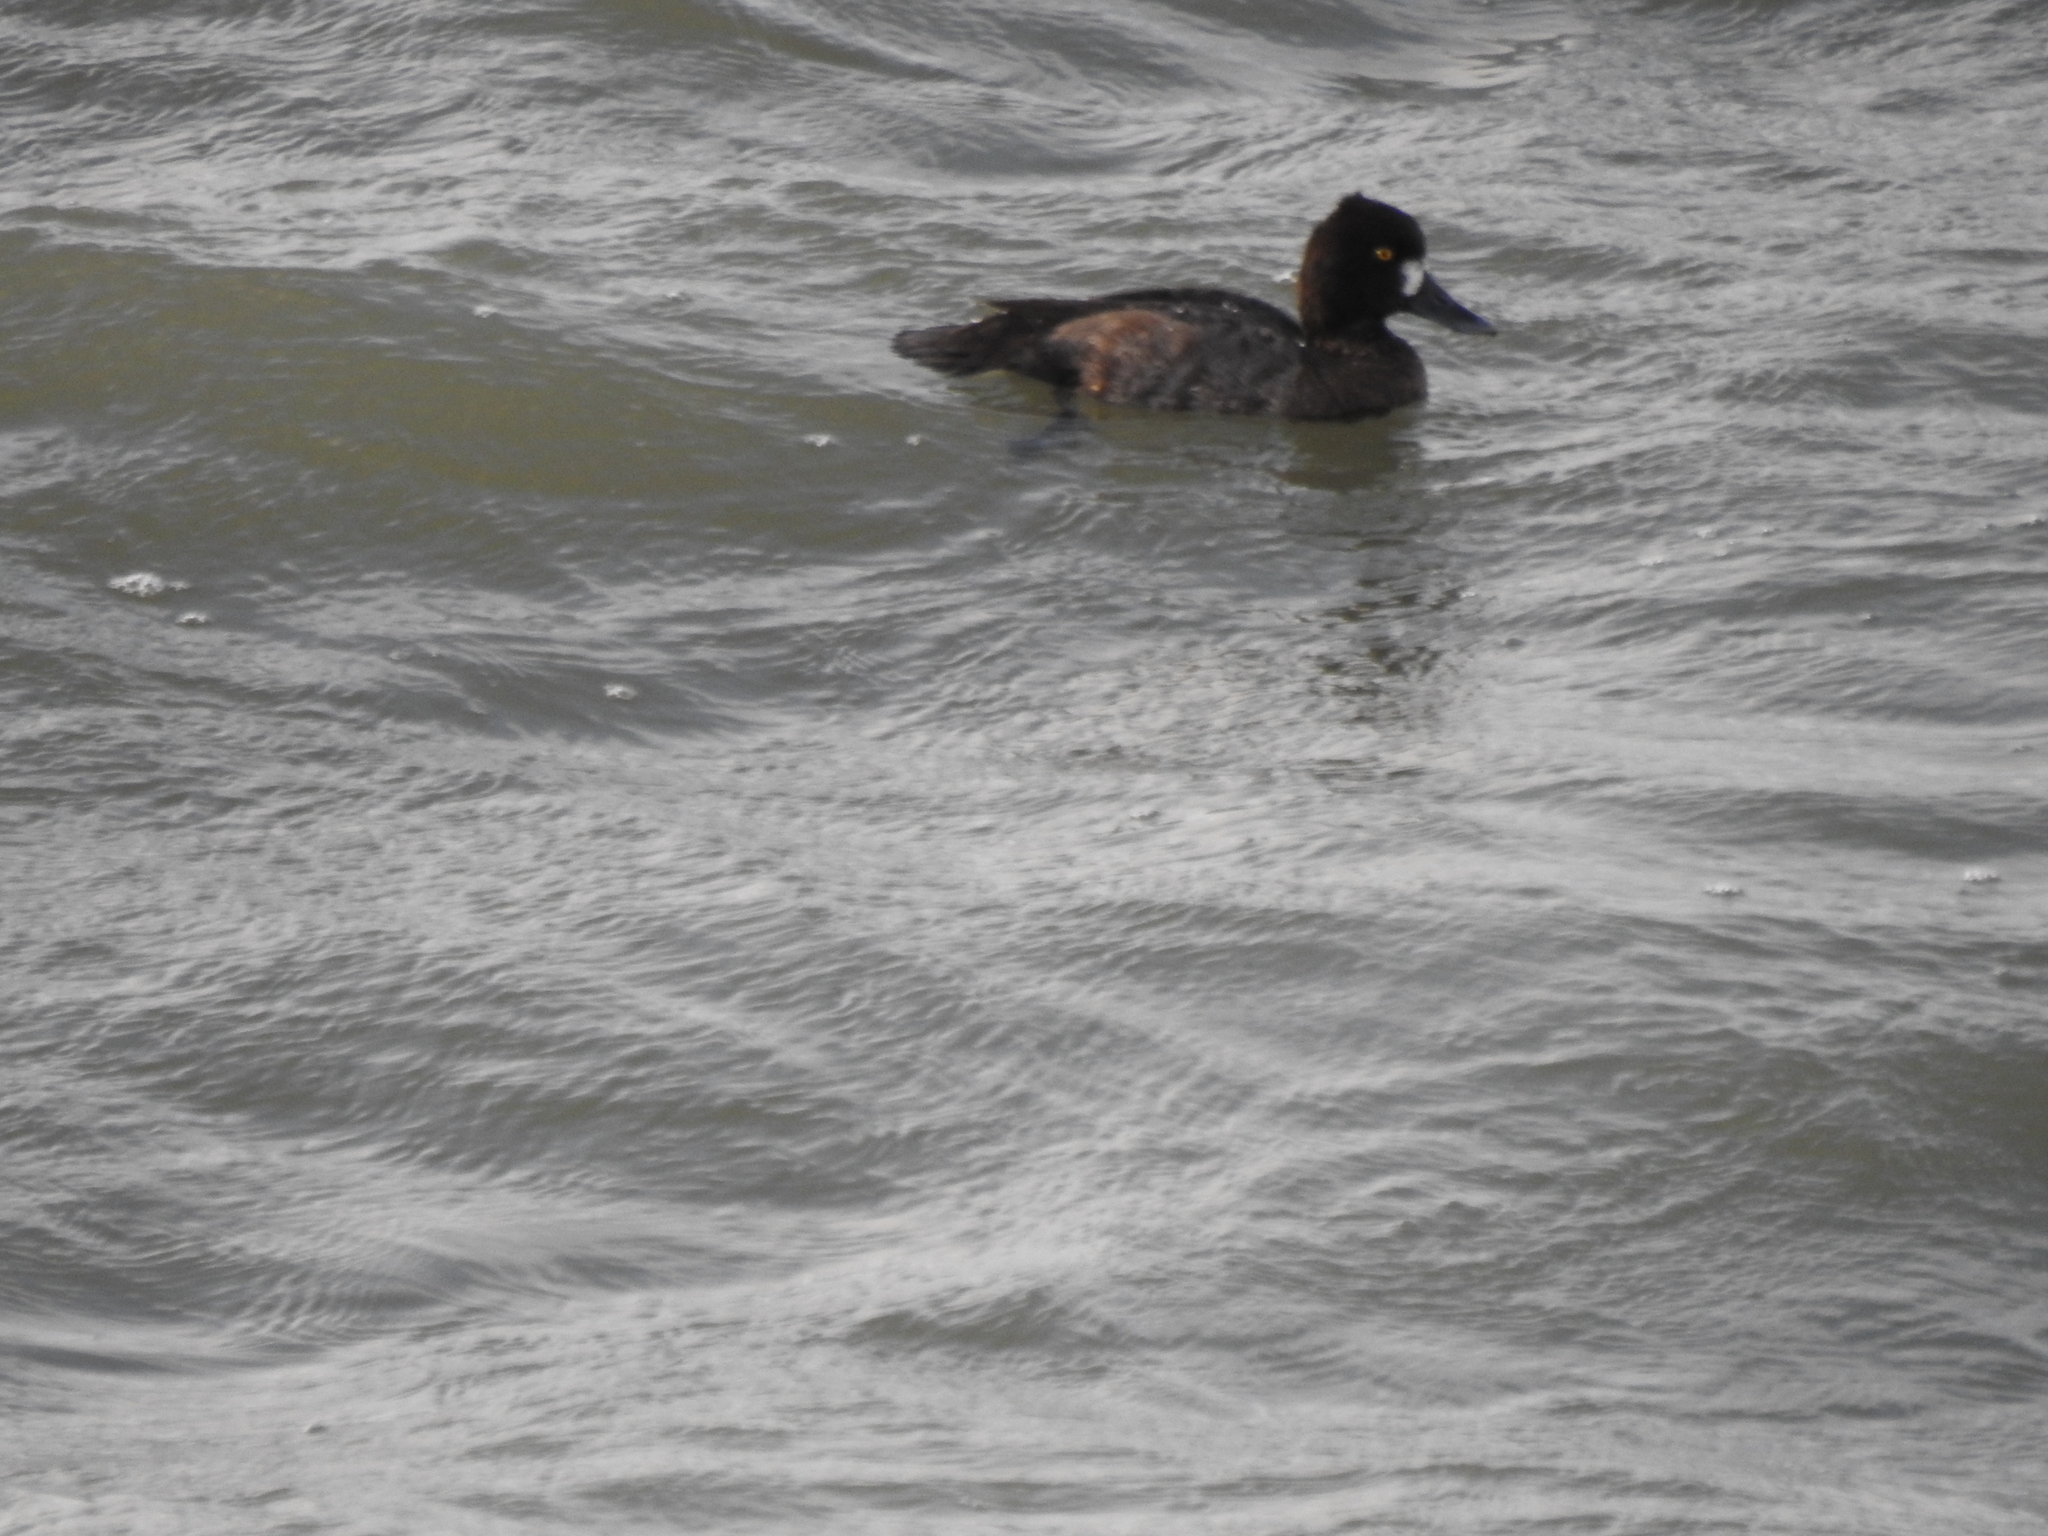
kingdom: Animalia
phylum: Chordata
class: Aves
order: Anseriformes
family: Anatidae
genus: Aythya
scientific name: Aythya affinis
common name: Lesser scaup
